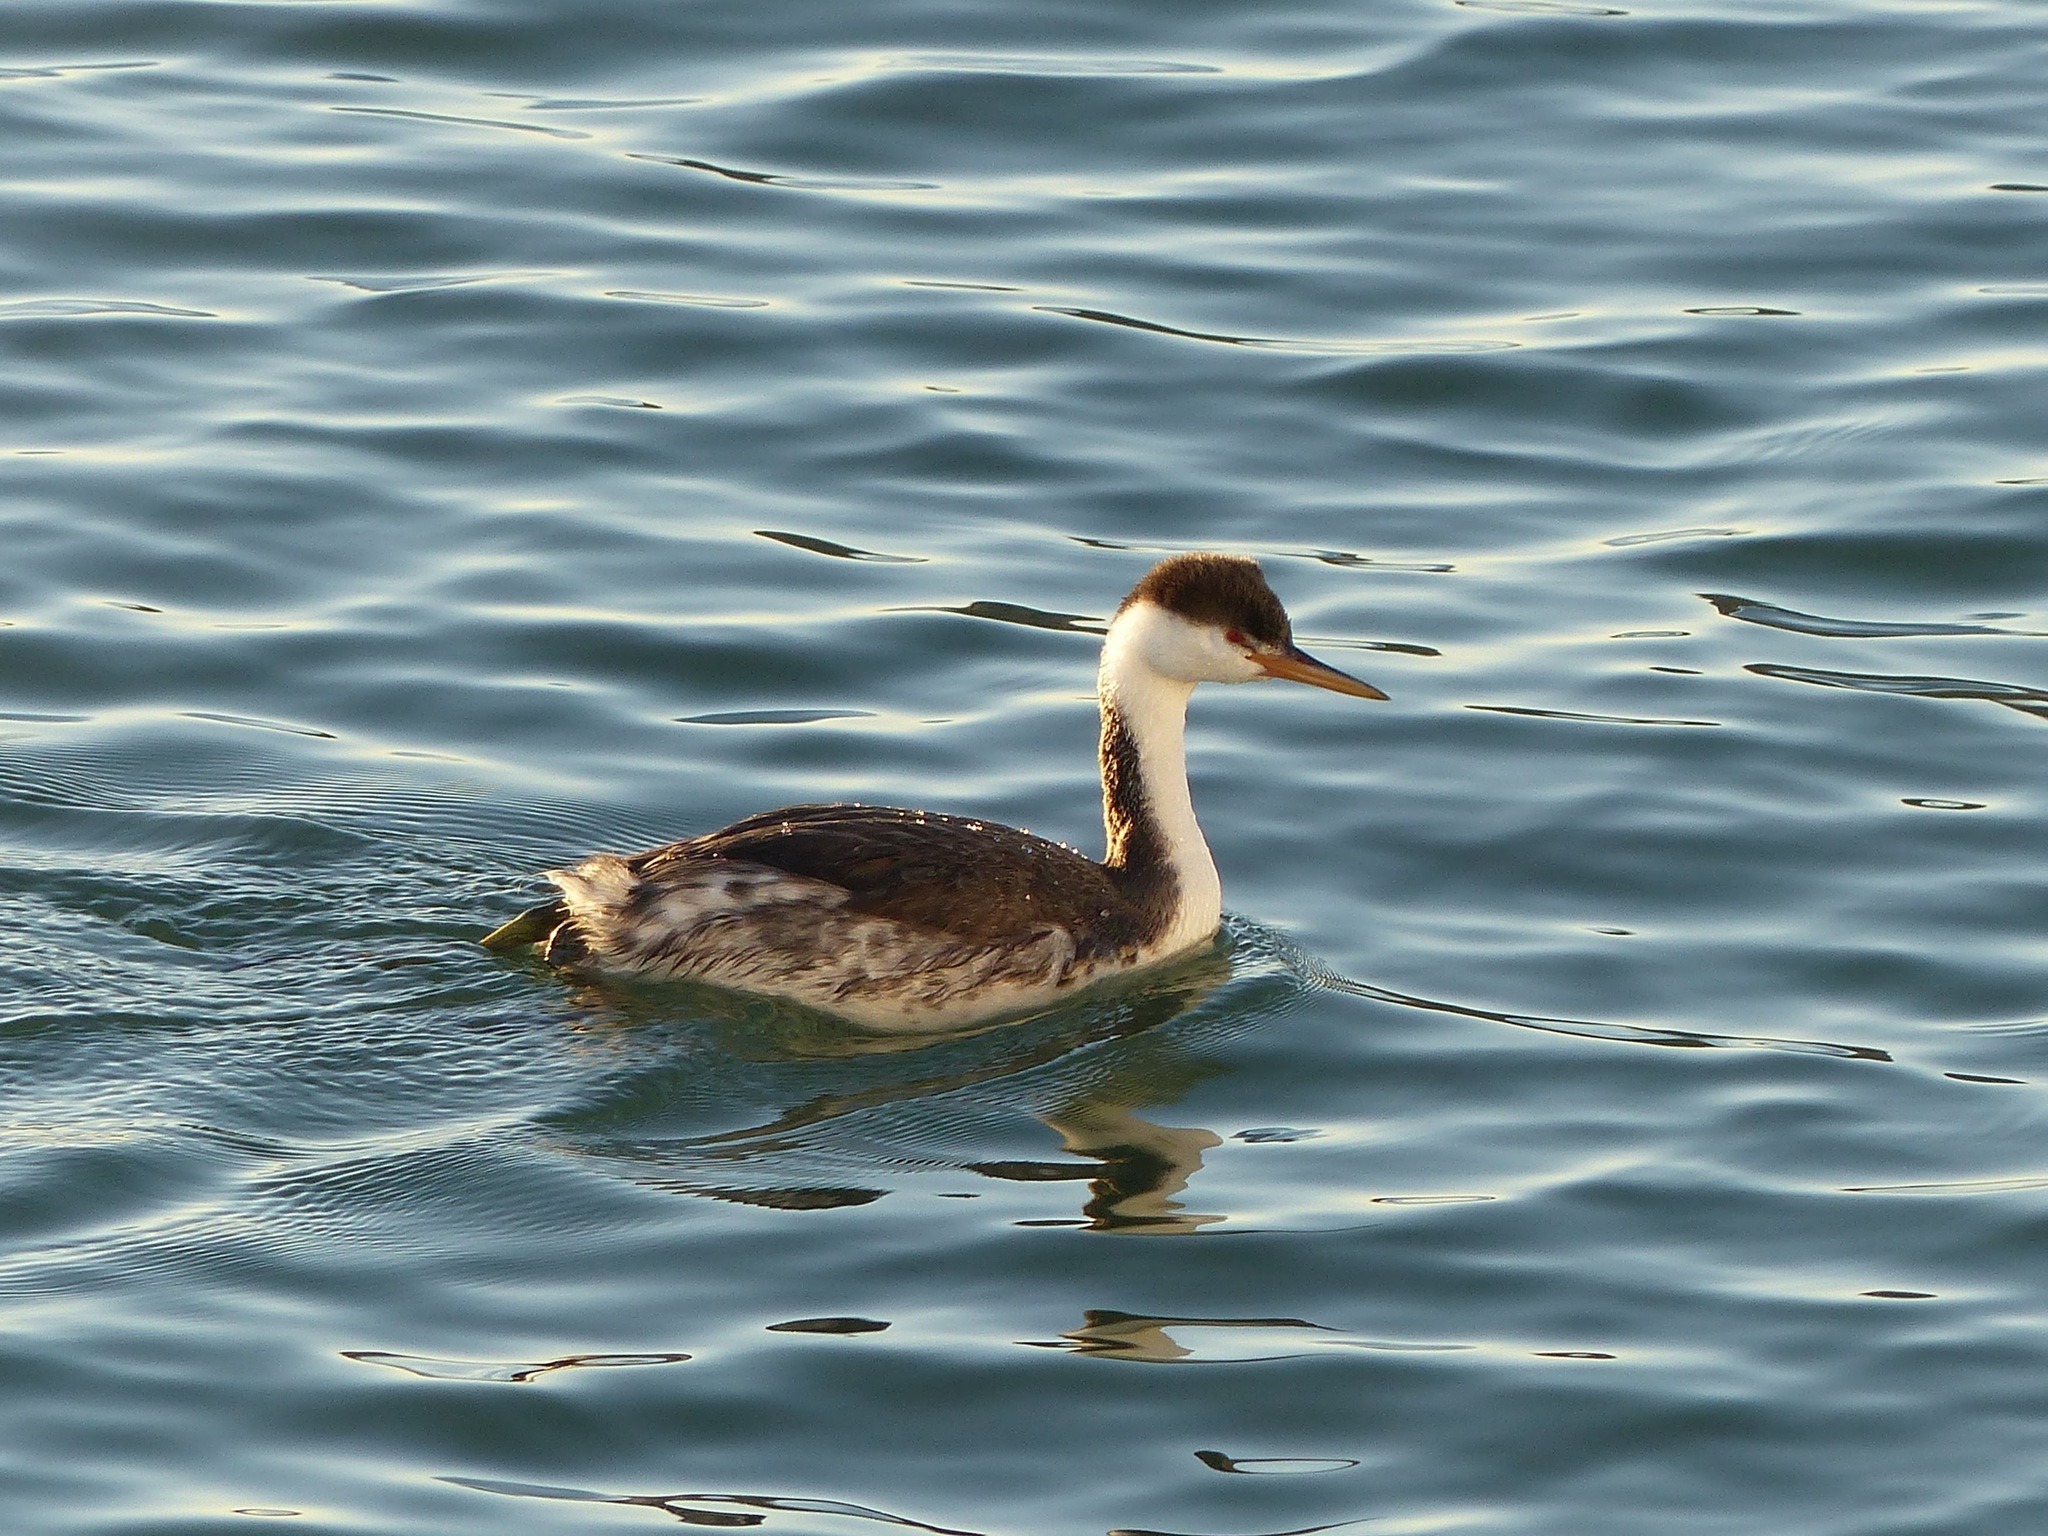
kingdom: Animalia
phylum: Chordata
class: Aves
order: Podicipediformes
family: Podicipedidae
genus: Aechmophorus
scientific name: Aechmophorus clarkii
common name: Clark's grebe
